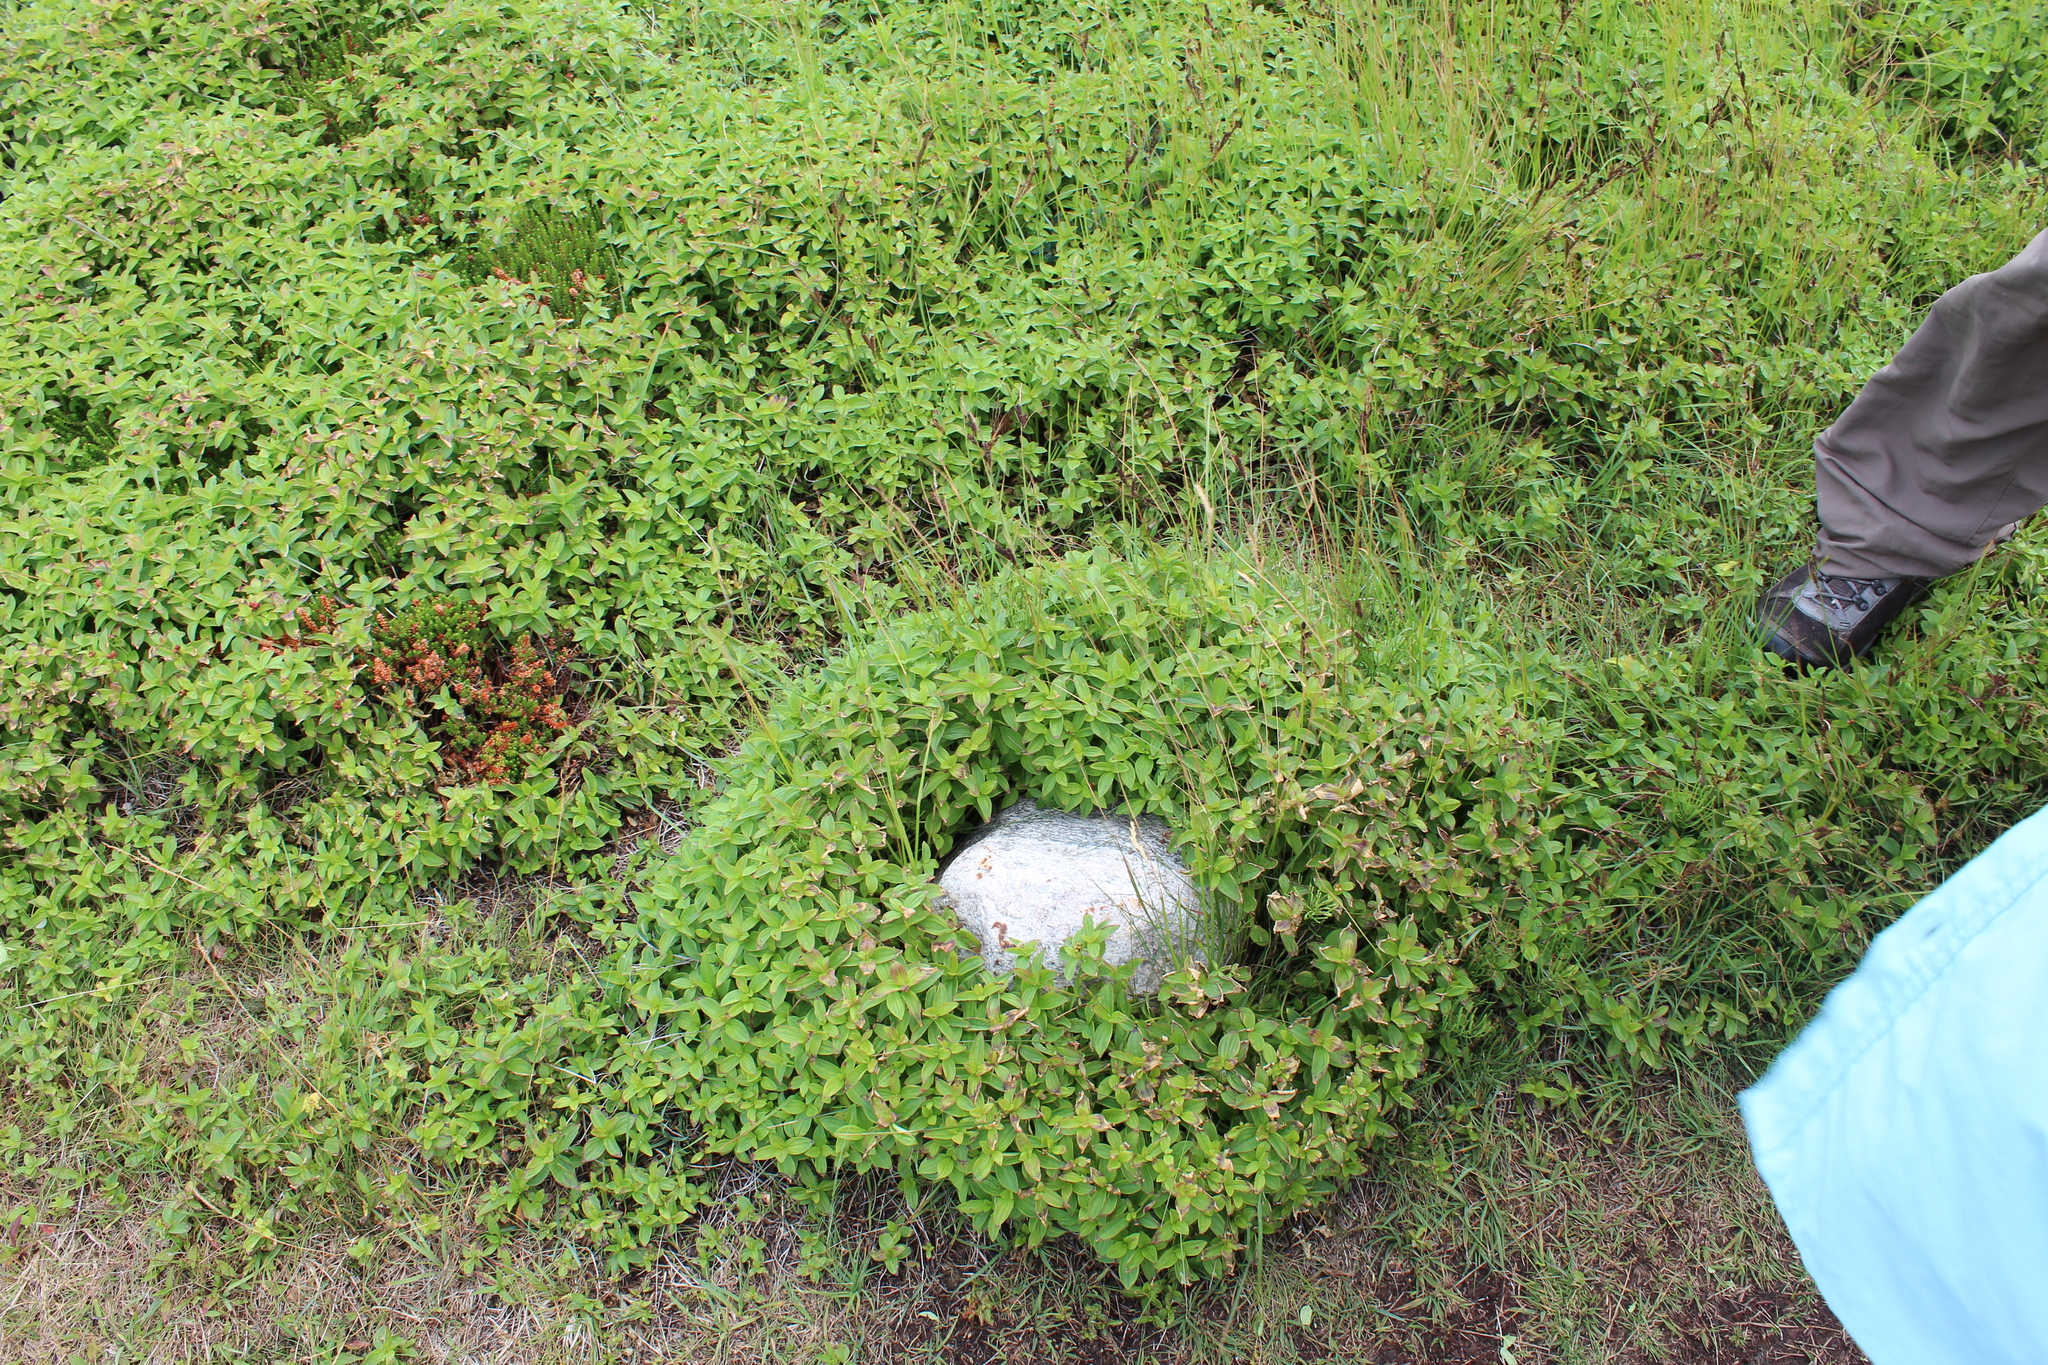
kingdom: Plantae
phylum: Tracheophyta
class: Magnoliopsida
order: Cornales
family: Cornaceae
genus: Cornus
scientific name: Cornus suecica
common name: Dwarf cornel
